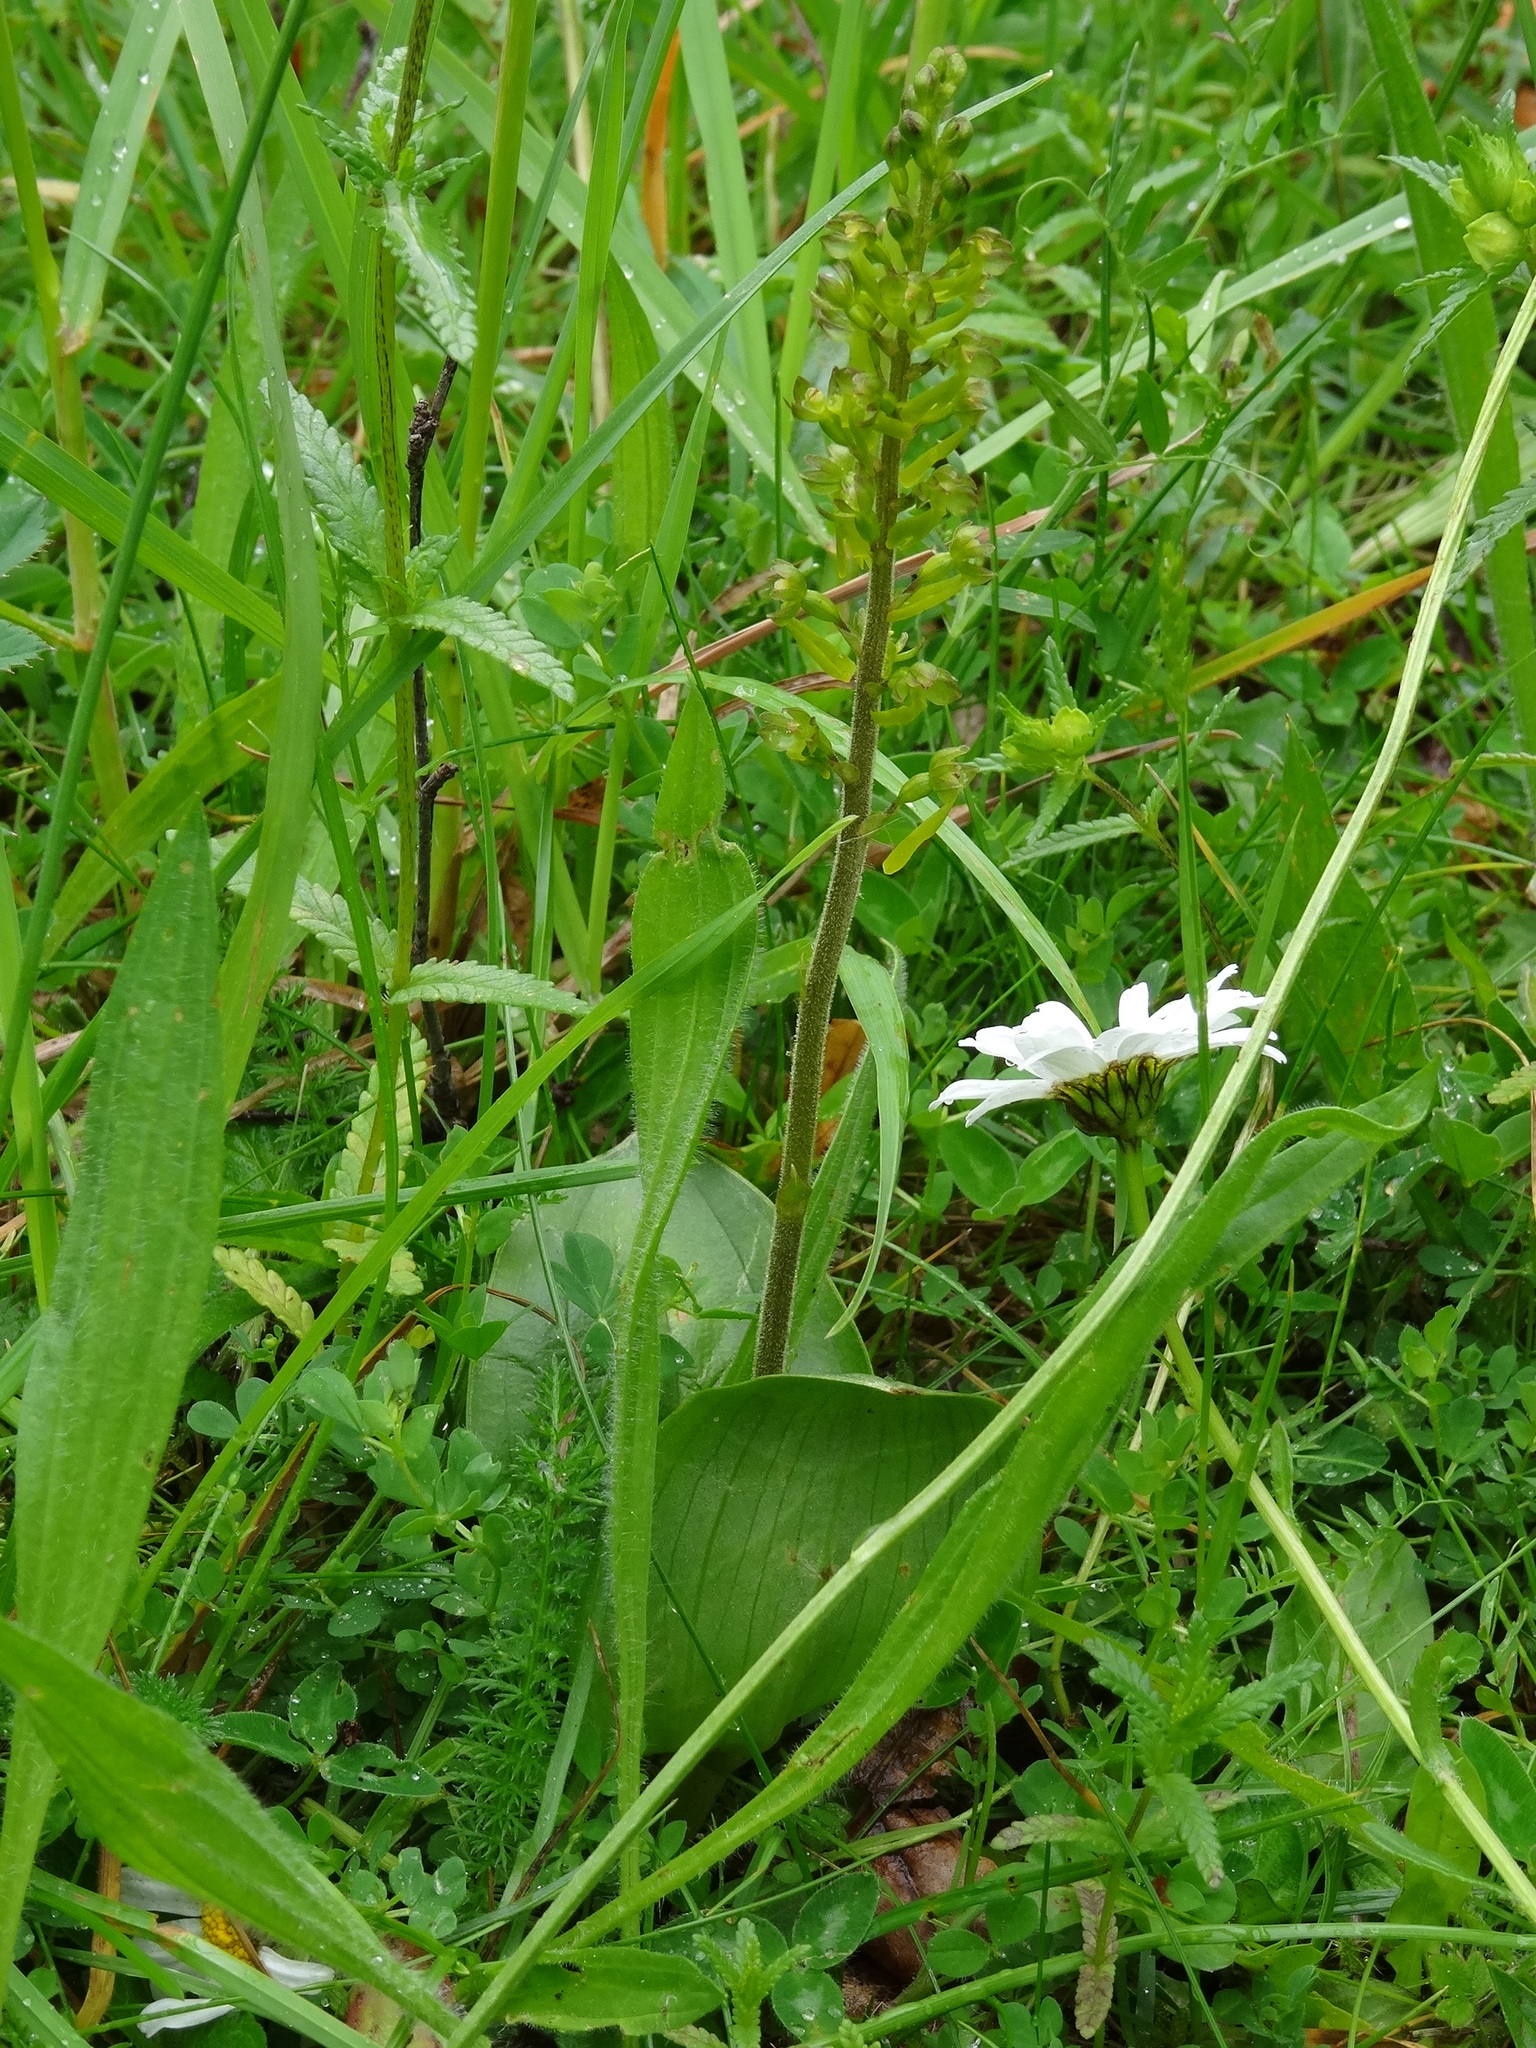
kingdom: Plantae
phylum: Tracheophyta
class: Liliopsida
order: Asparagales
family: Orchidaceae
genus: Neottia
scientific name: Neottia ovata
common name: Common twayblade
